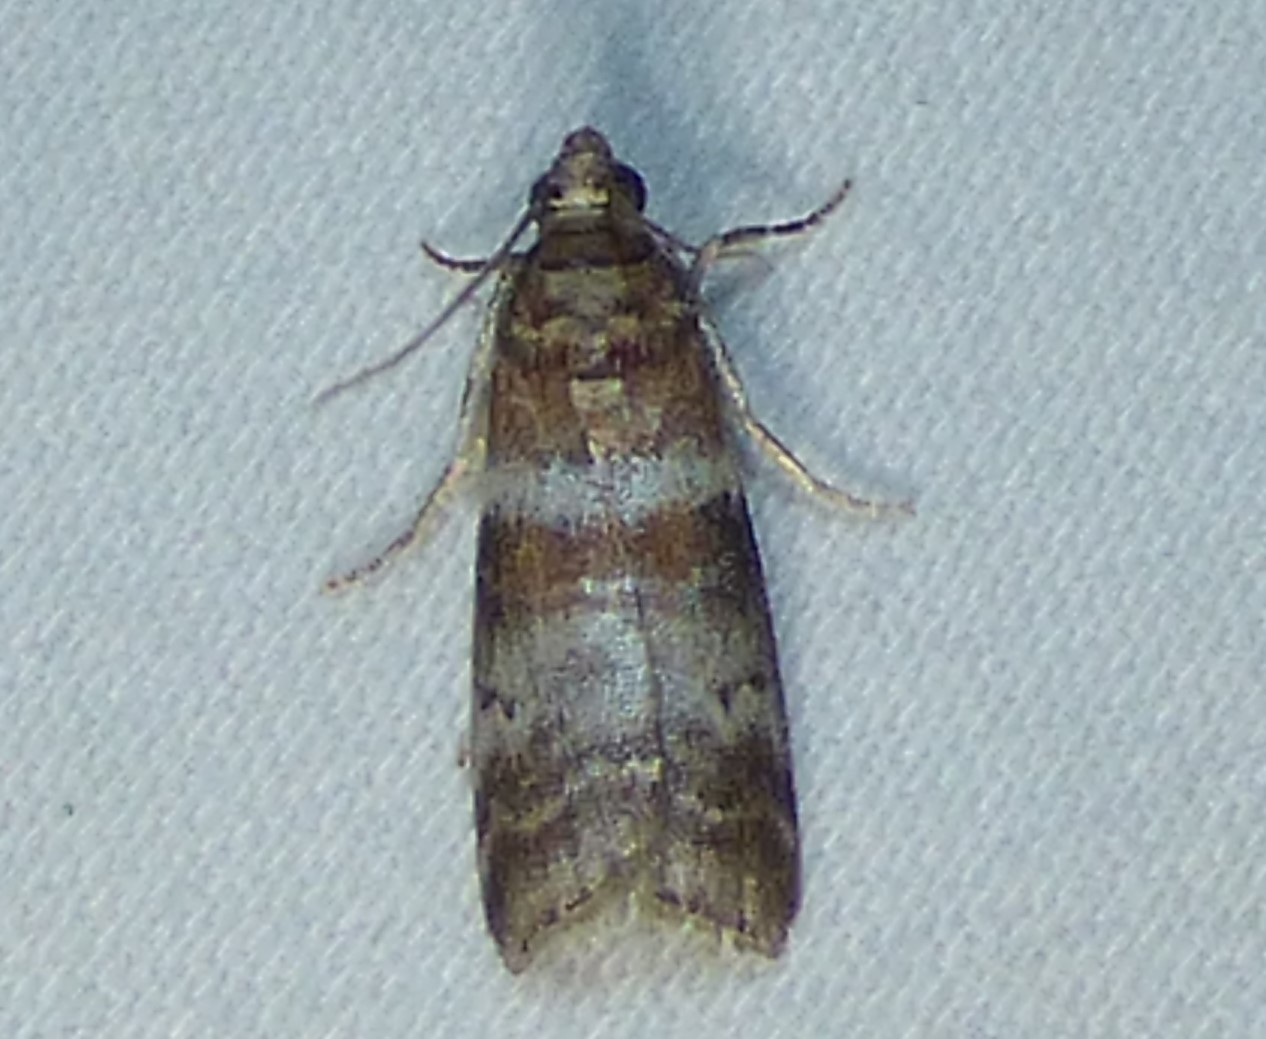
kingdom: Animalia
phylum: Arthropoda
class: Insecta
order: Lepidoptera
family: Pyralidae
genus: Sciota
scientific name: Sciota uvinella
